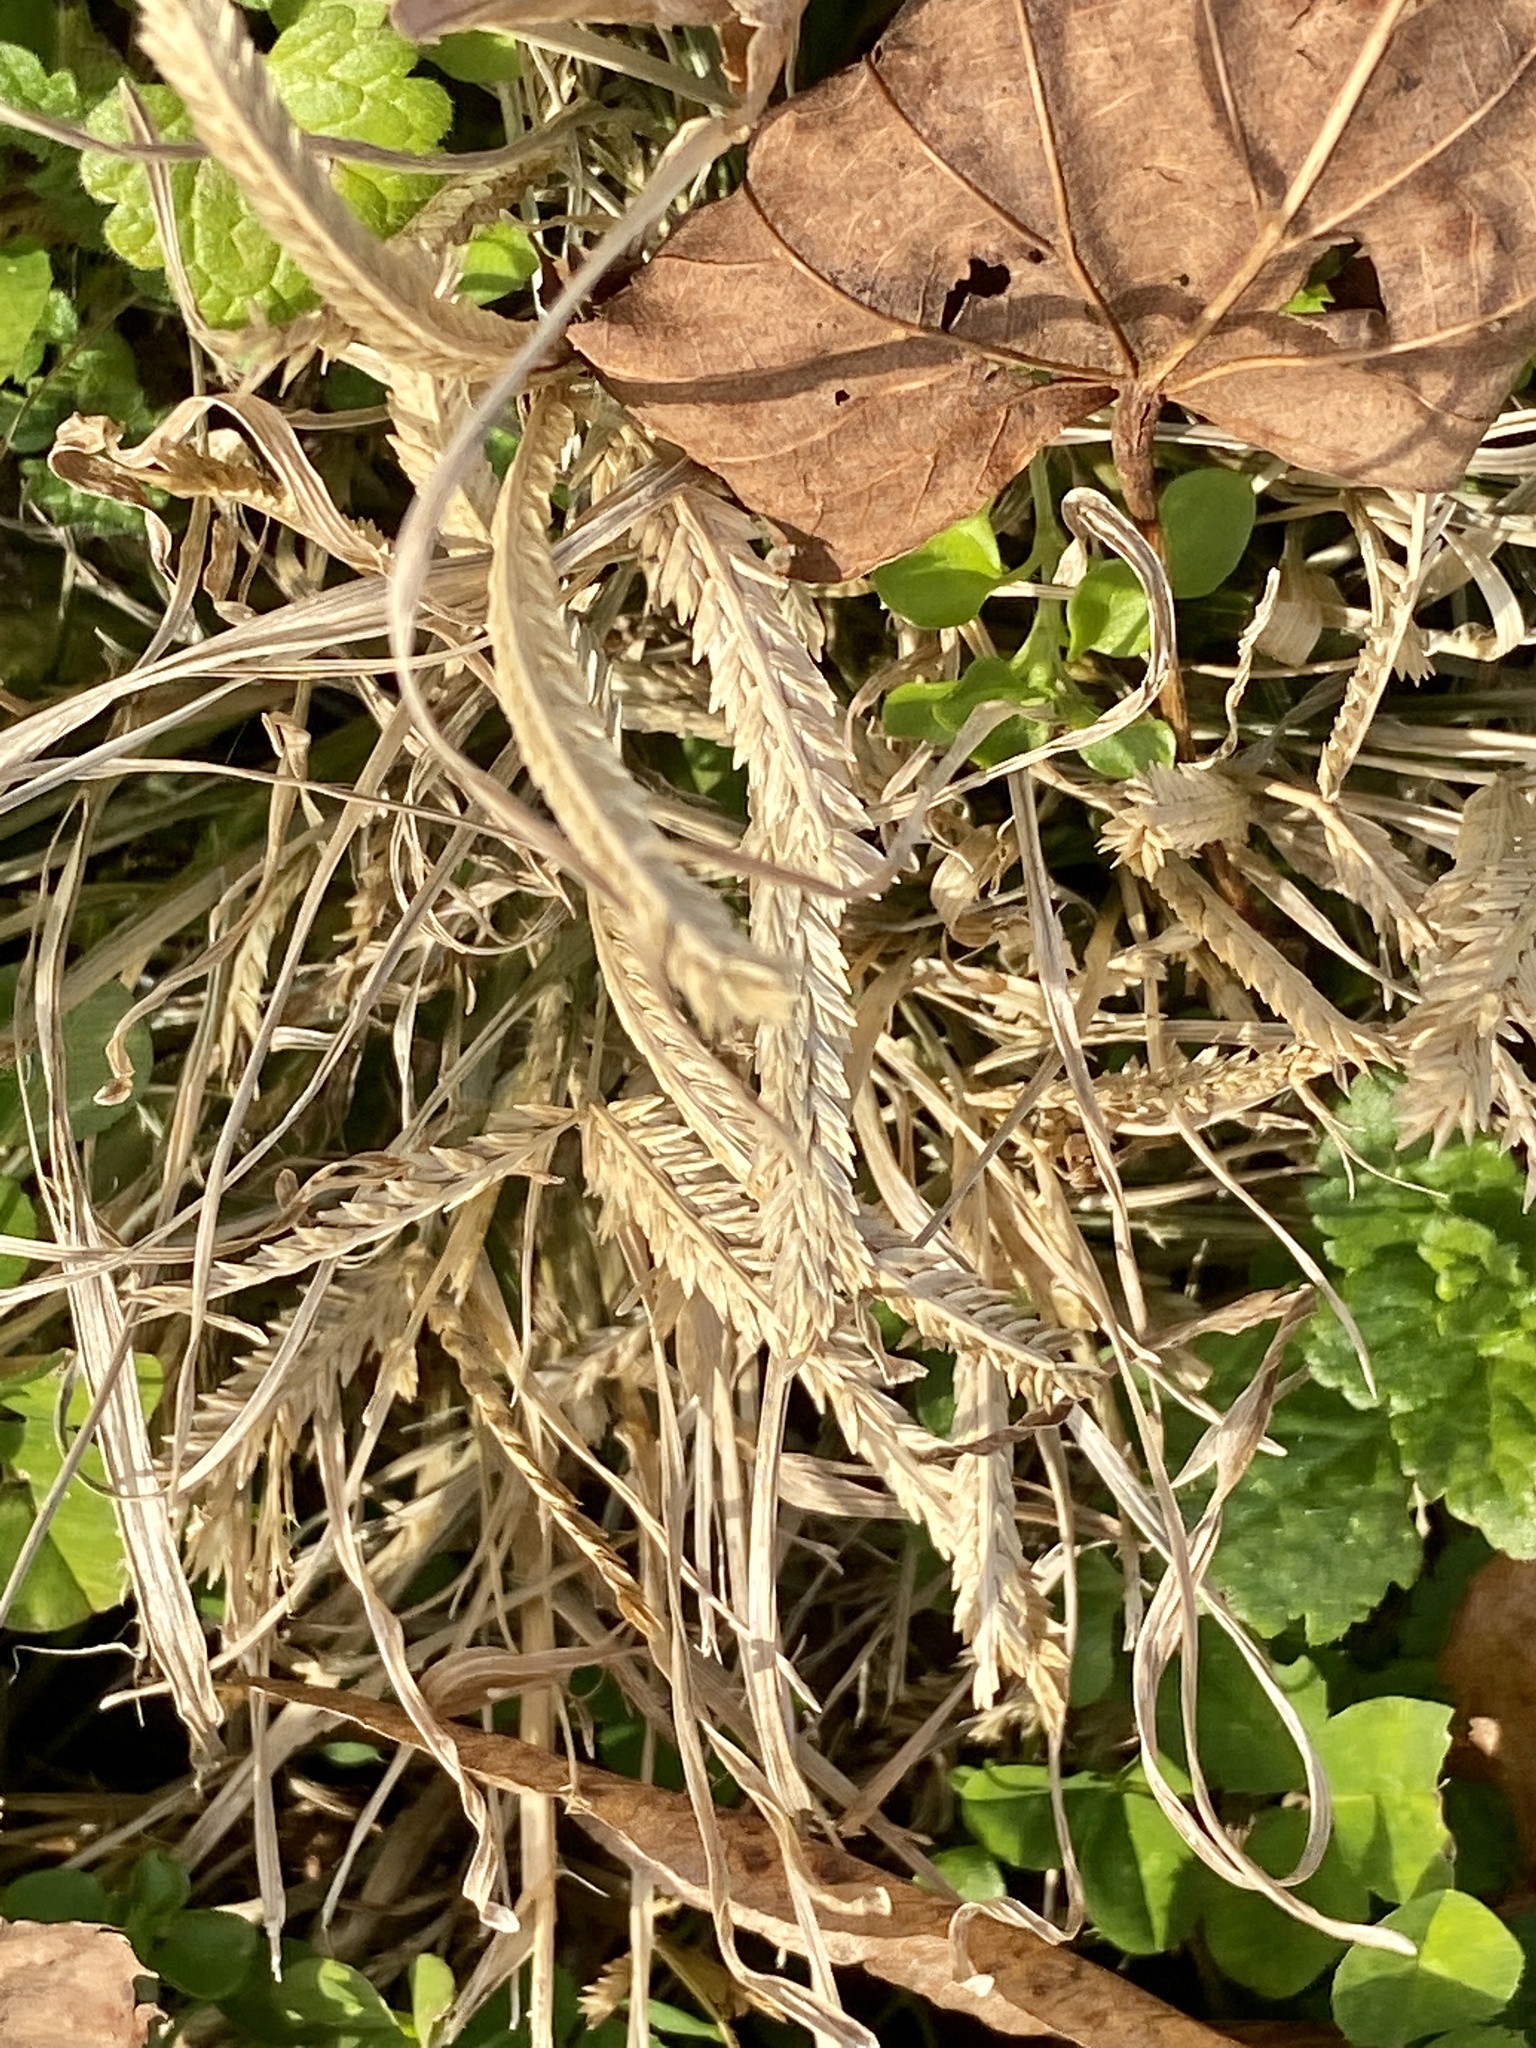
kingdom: Plantae
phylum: Tracheophyta
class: Liliopsida
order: Poales
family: Poaceae
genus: Eleusine
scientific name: Eleusine indica
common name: Yard-grass
